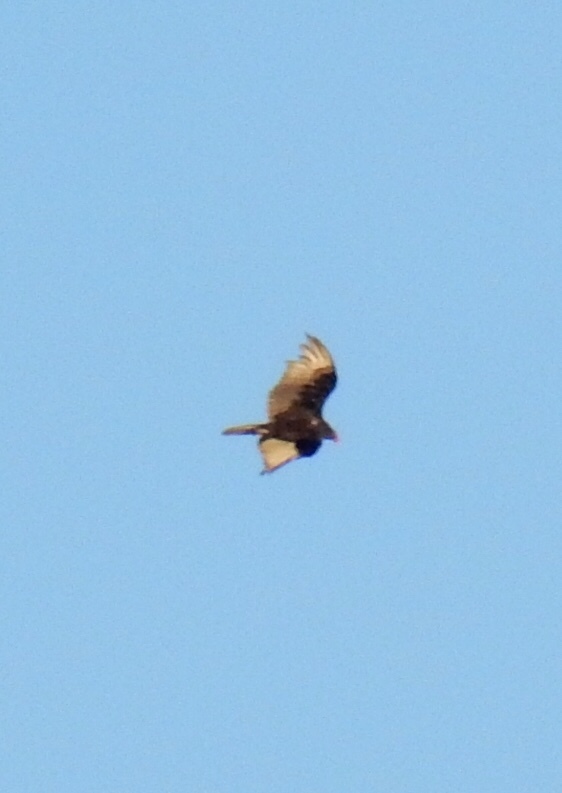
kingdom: Animalia
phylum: Chordata
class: Aves
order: Accipitriformes
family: Cathartidae
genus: Cathartes
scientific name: Cathartes aura
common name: Turkey vulture
